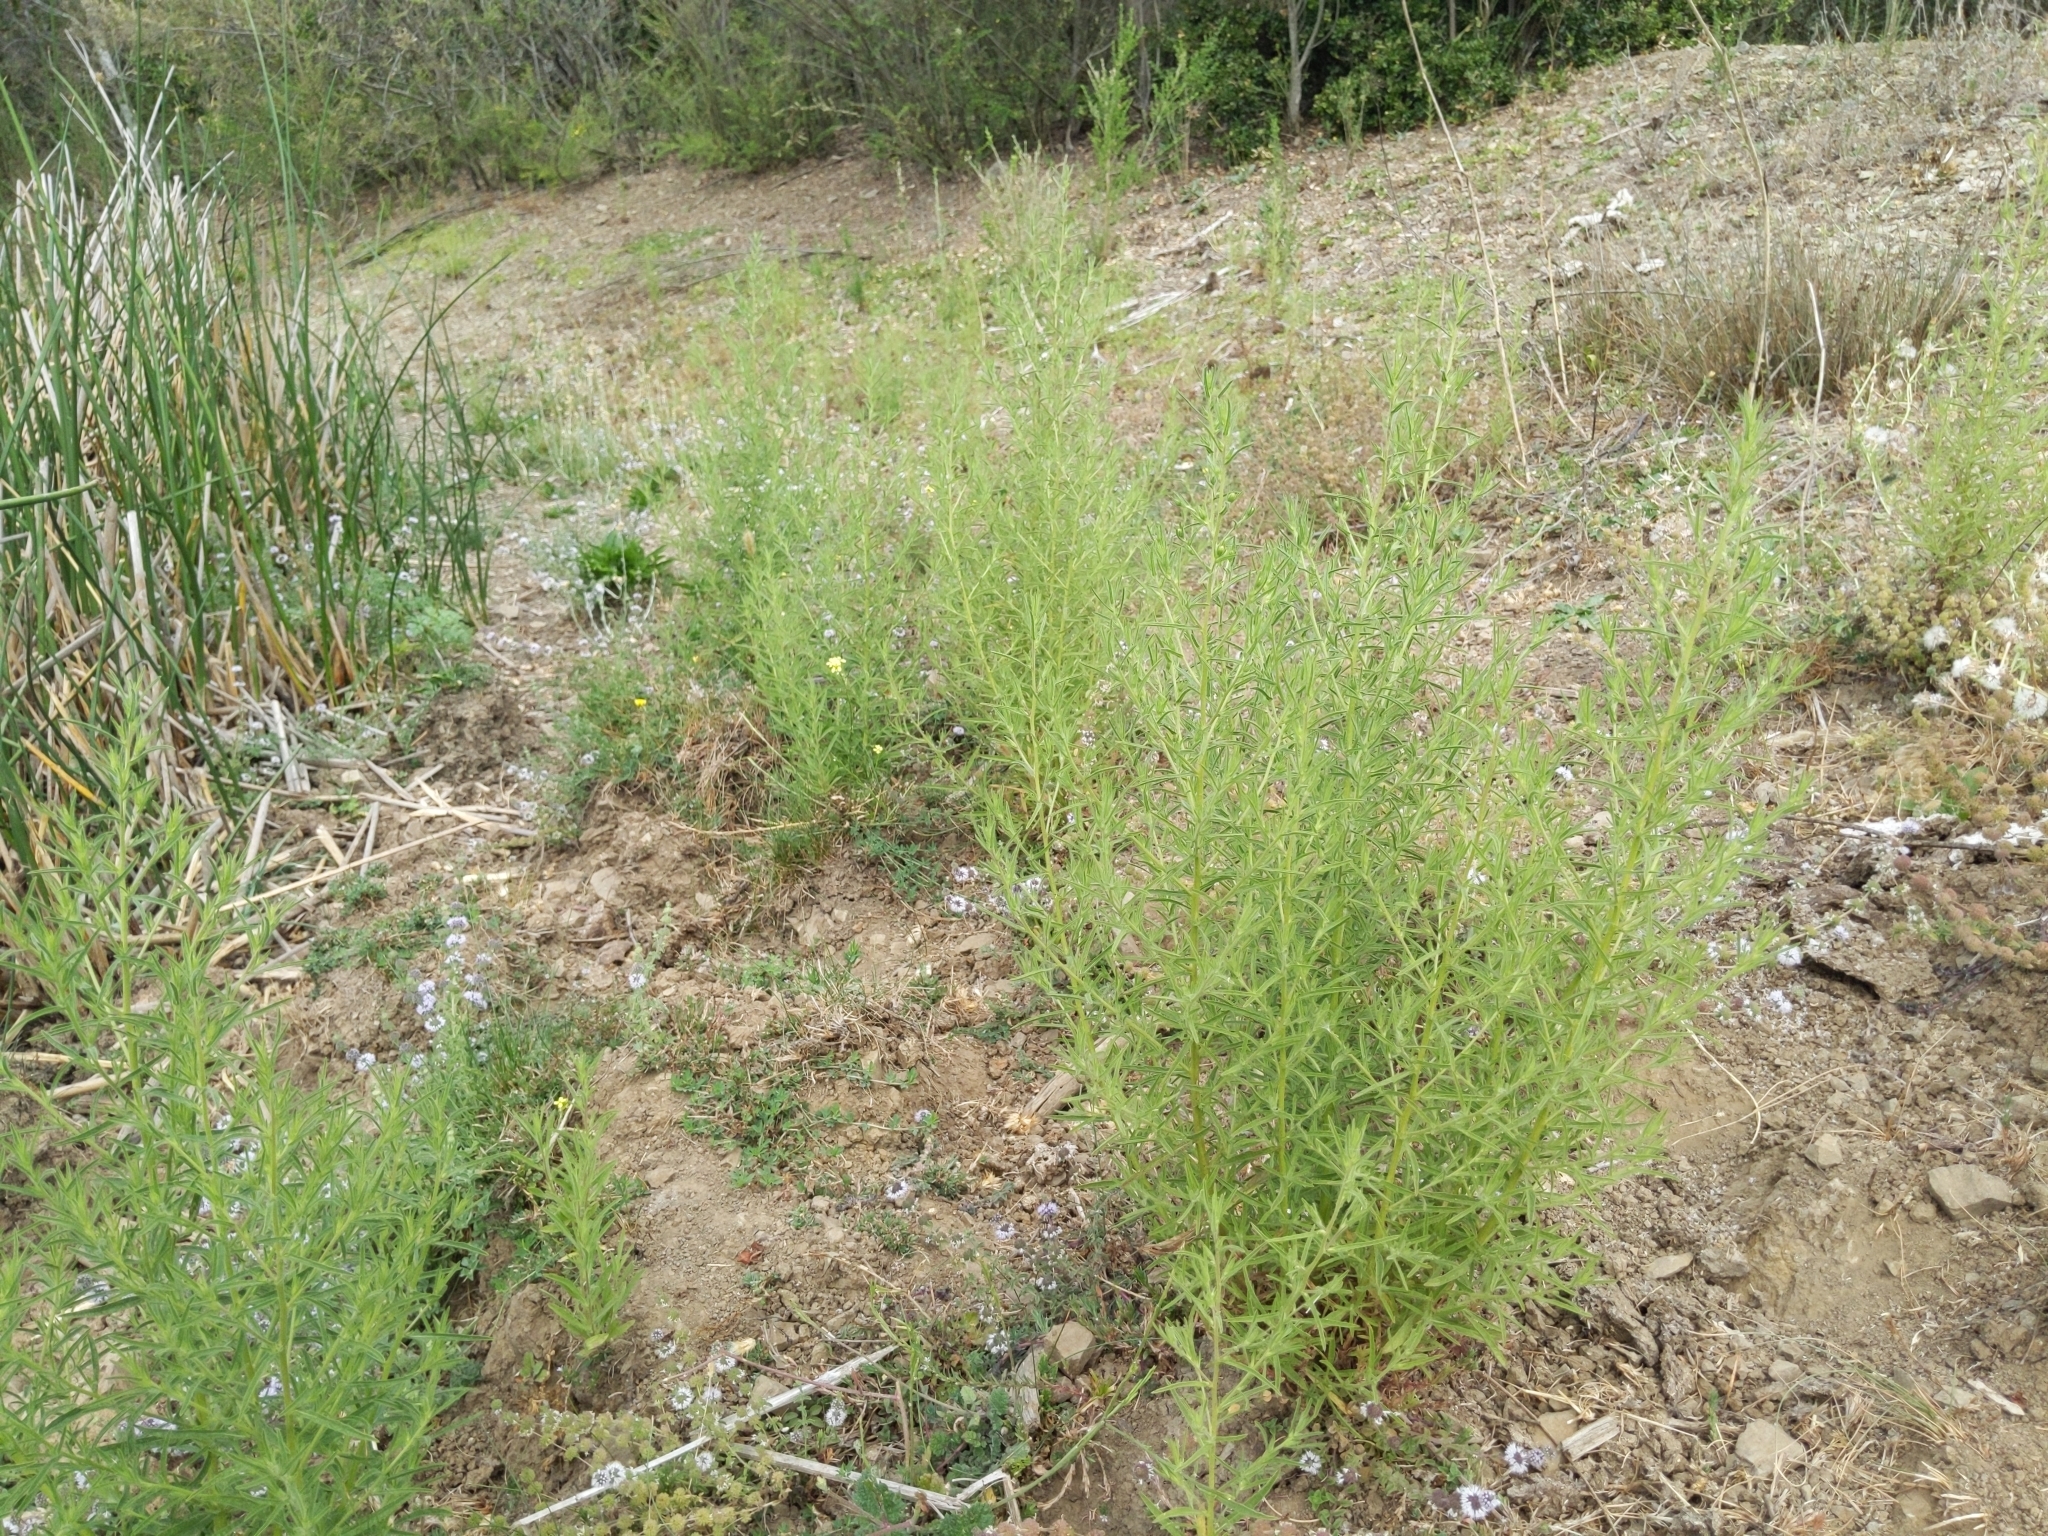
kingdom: Plantae
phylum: Tracheophyta
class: Magnoliopsida
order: Asterales
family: Asteraceae
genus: Dittrichia
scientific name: Dittrichia graveolens
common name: Stinking fleabane
